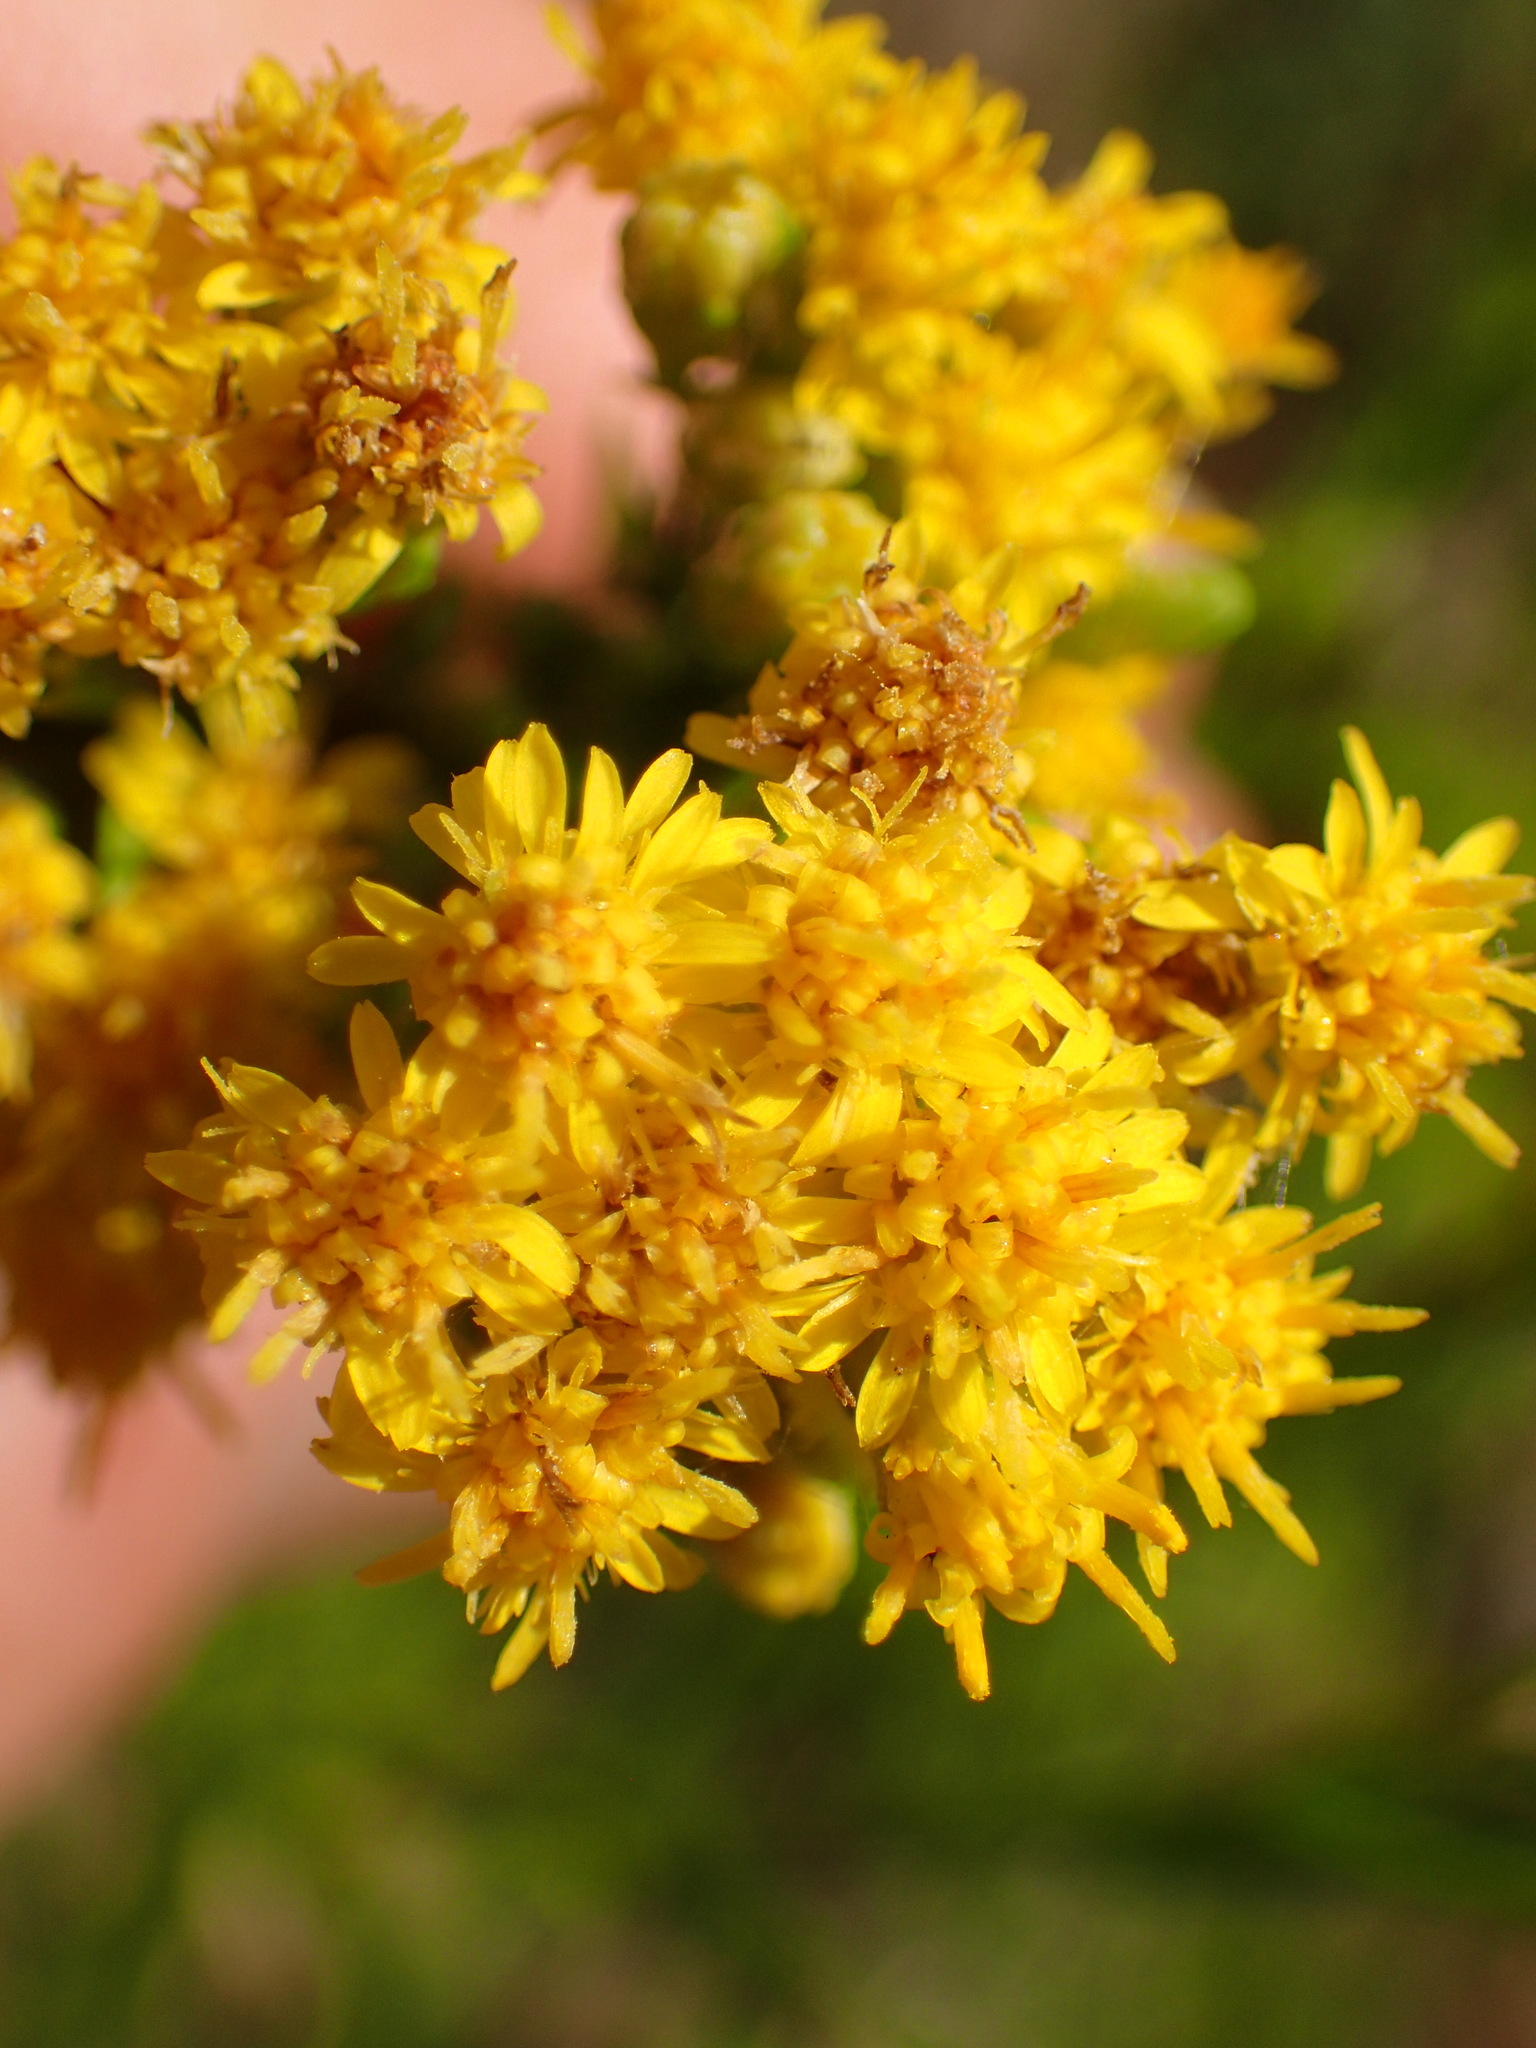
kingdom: Plantae
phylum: Tracheophyta
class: Magnoliopsida
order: Asterales
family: Asteraceae
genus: Euthamia
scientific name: Euthamia occidentalis
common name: Western goldentop
